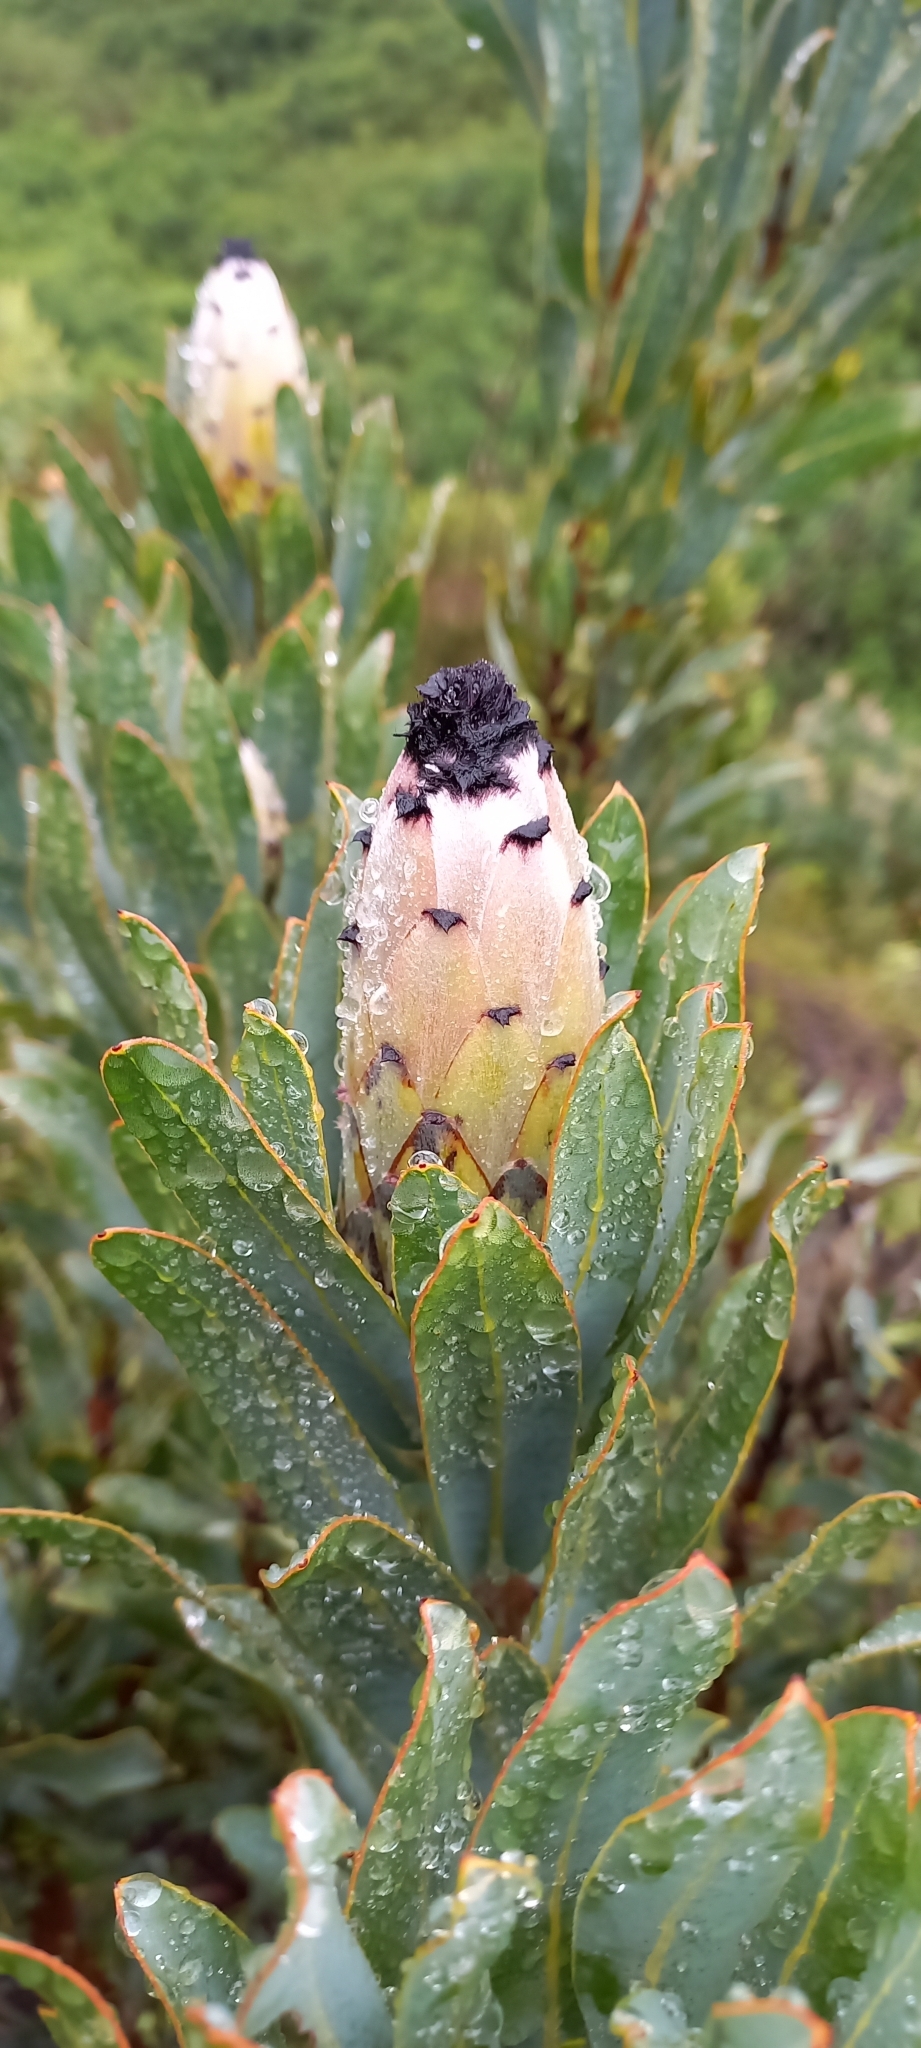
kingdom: Plantae
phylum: Tracheophyta
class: Magnoliopsida
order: Proteales
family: Proteaceae
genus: Protea
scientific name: Protea laurifolia
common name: Grey-leaf sugarbsh
